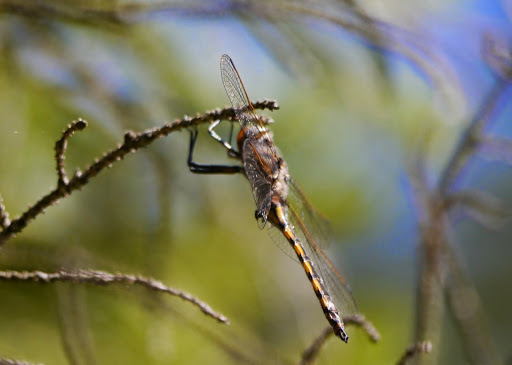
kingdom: Animalia
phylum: Arthropoda
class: Insecta
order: Odonata
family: Corduliidae
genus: Epitheca
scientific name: Epitheca canis
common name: Beaverpond baskettail
